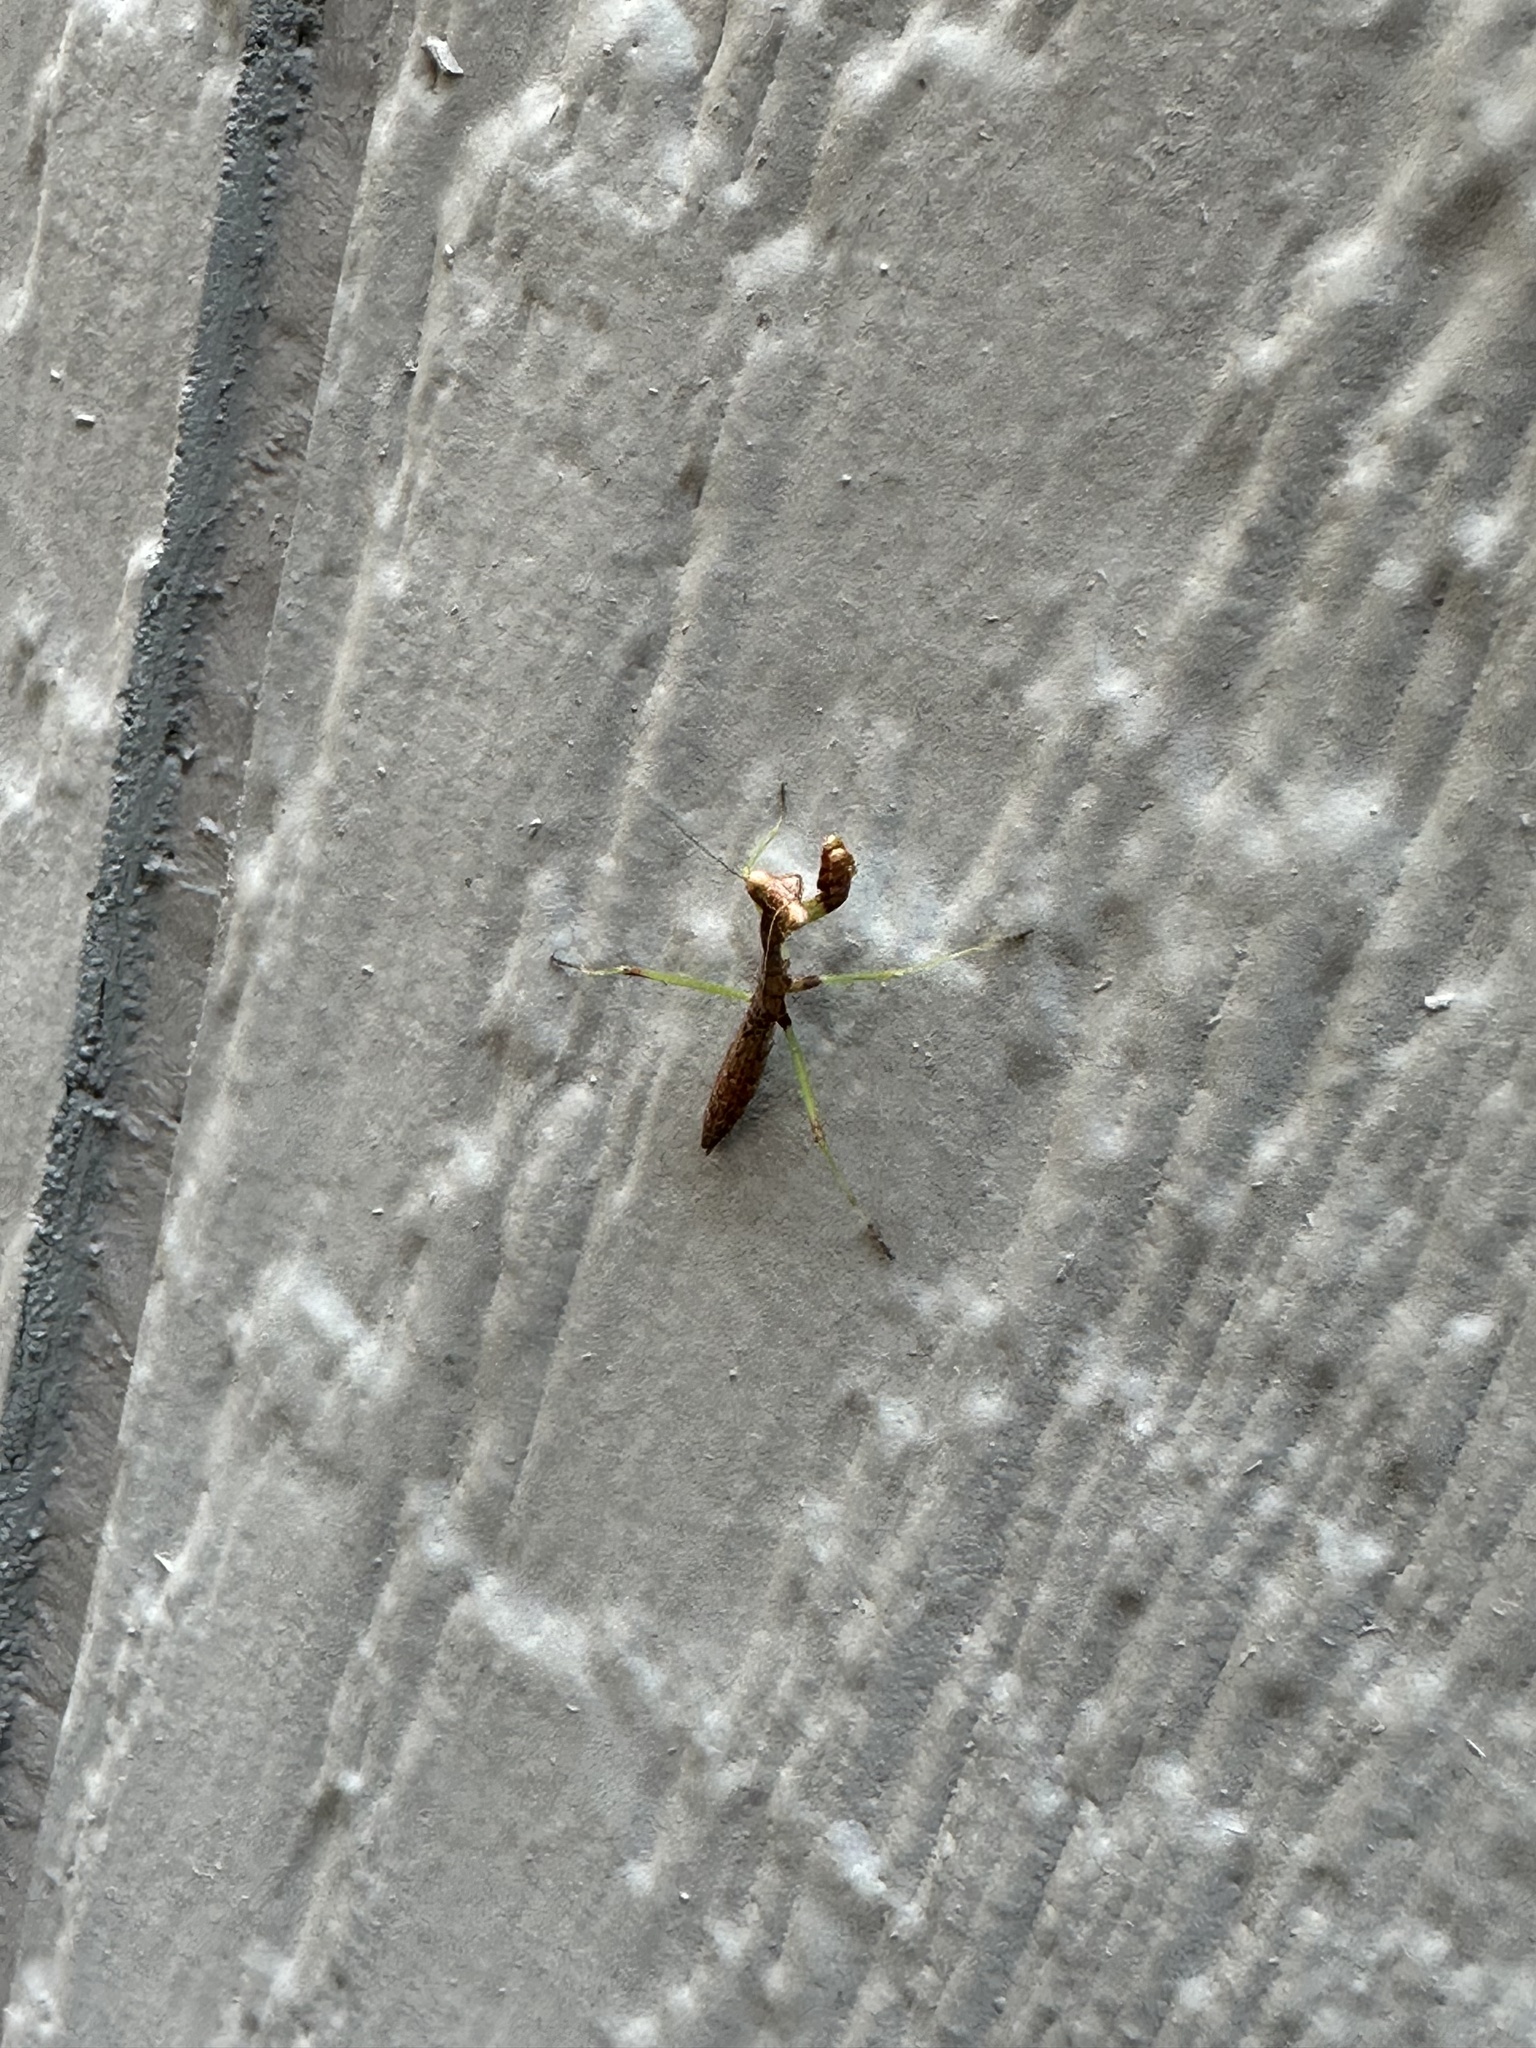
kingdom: Animalia
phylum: Arthropoda
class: Insecta
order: Mantodea
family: Mantidae
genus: Stagmomantis
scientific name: Stagmomantis carolina
